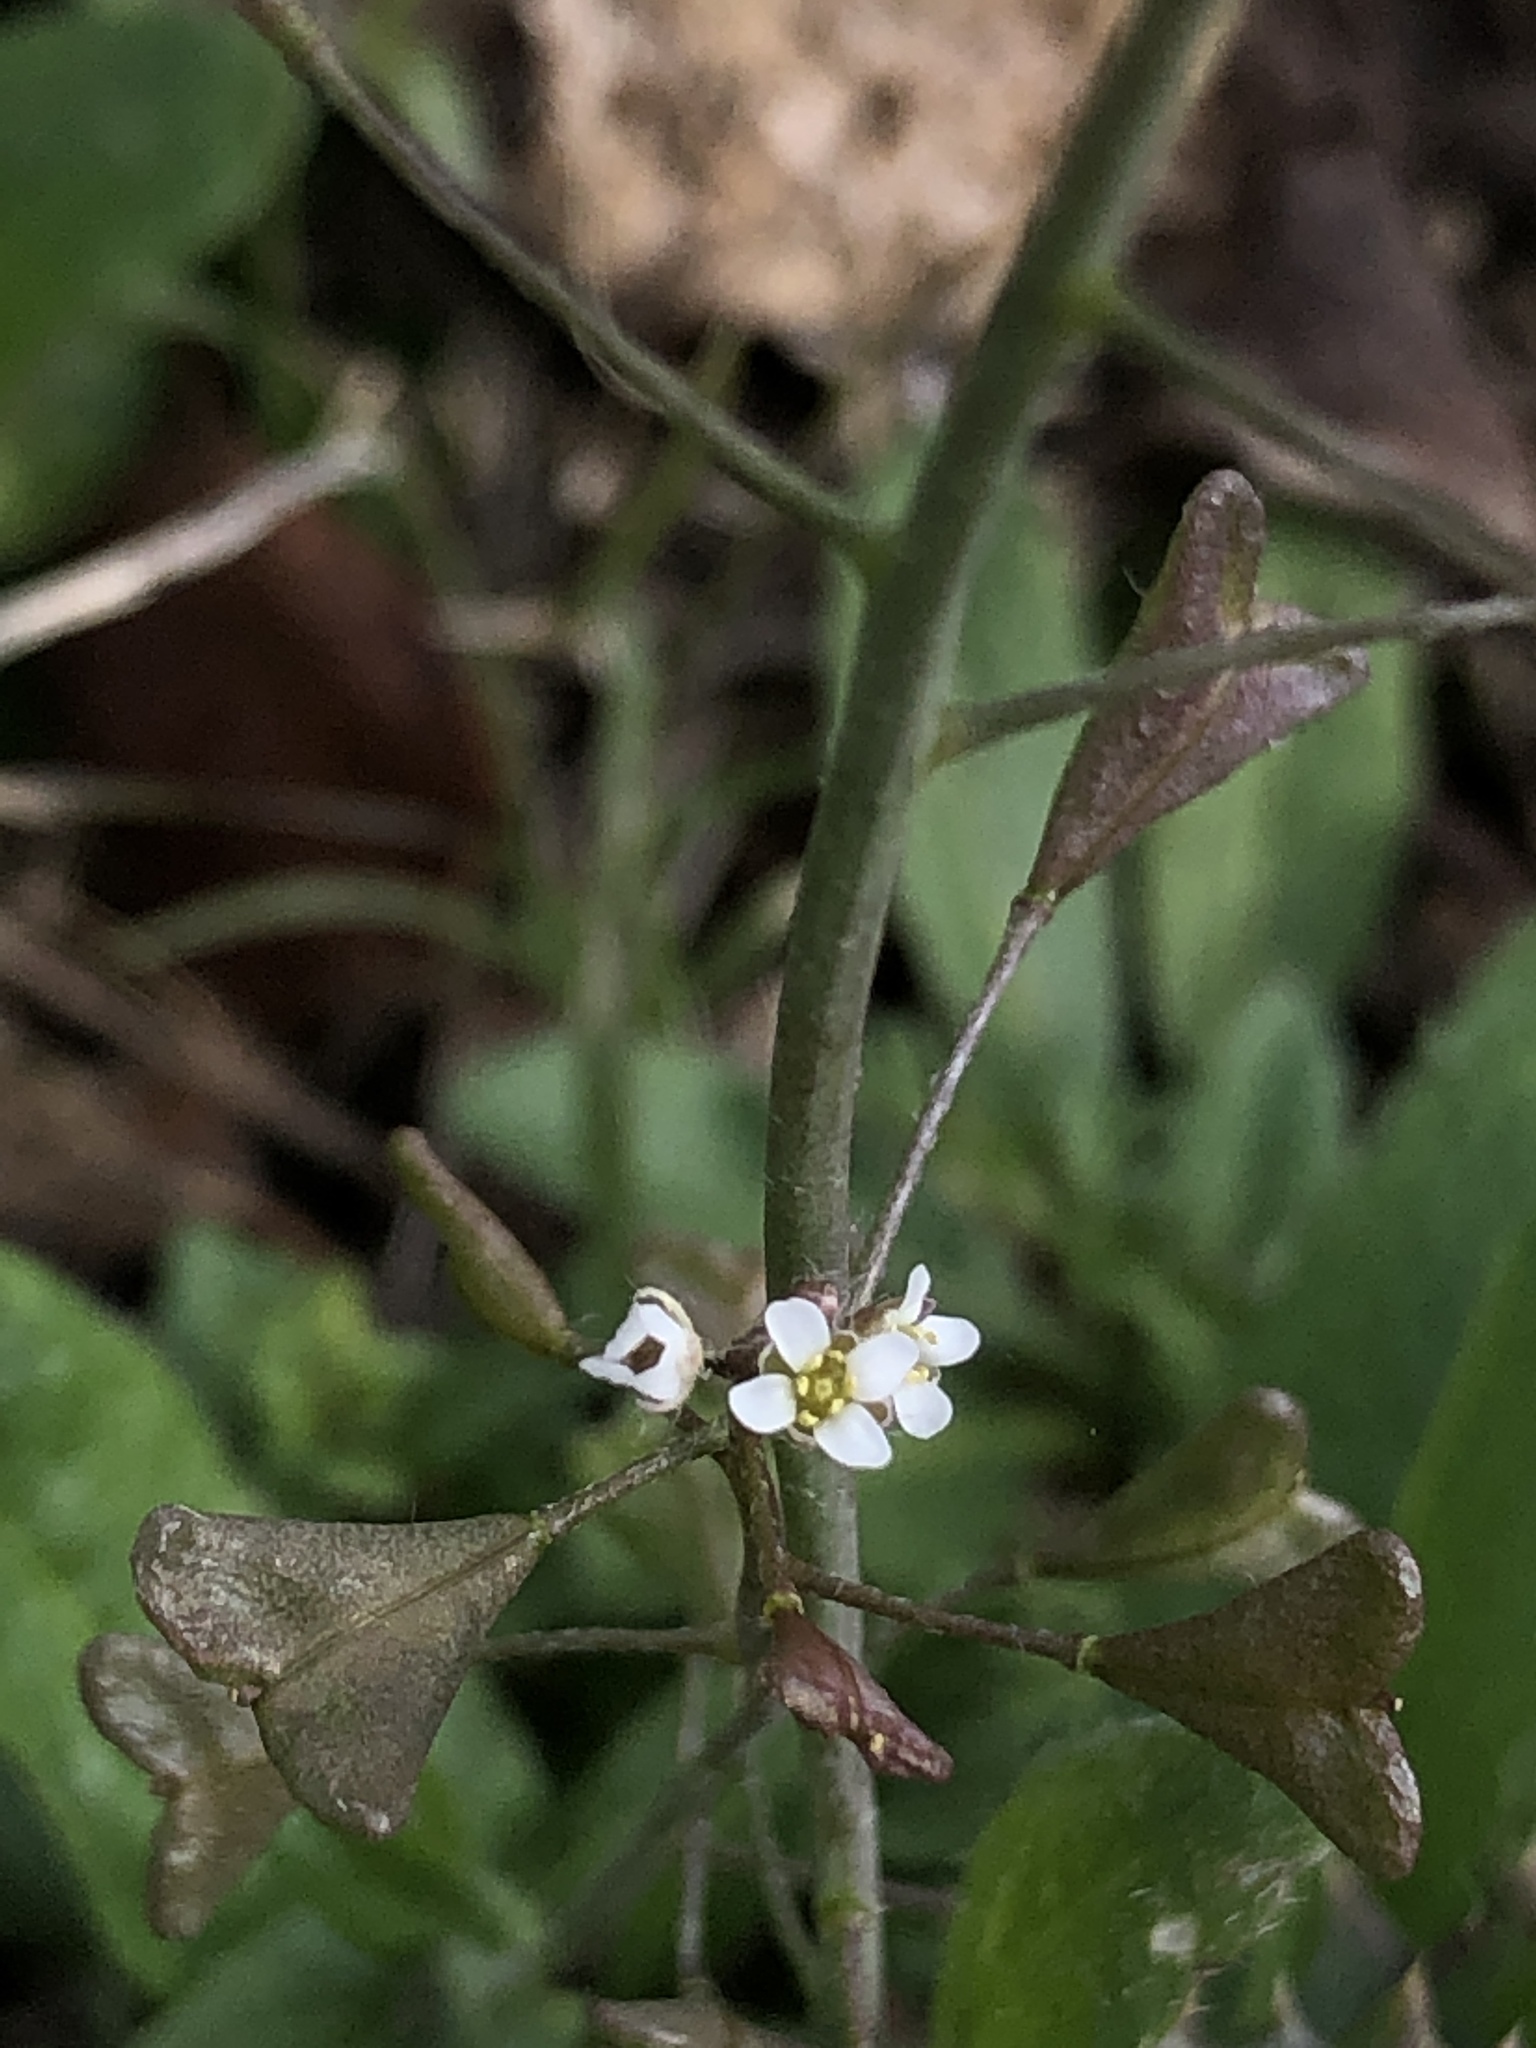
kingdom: Plantae
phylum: Tracheophyta
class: Magnoliopsida
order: Brassicales
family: Brassicaceae
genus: Capsella
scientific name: Capsella bursa-pastoris
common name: Shepherd's purse
